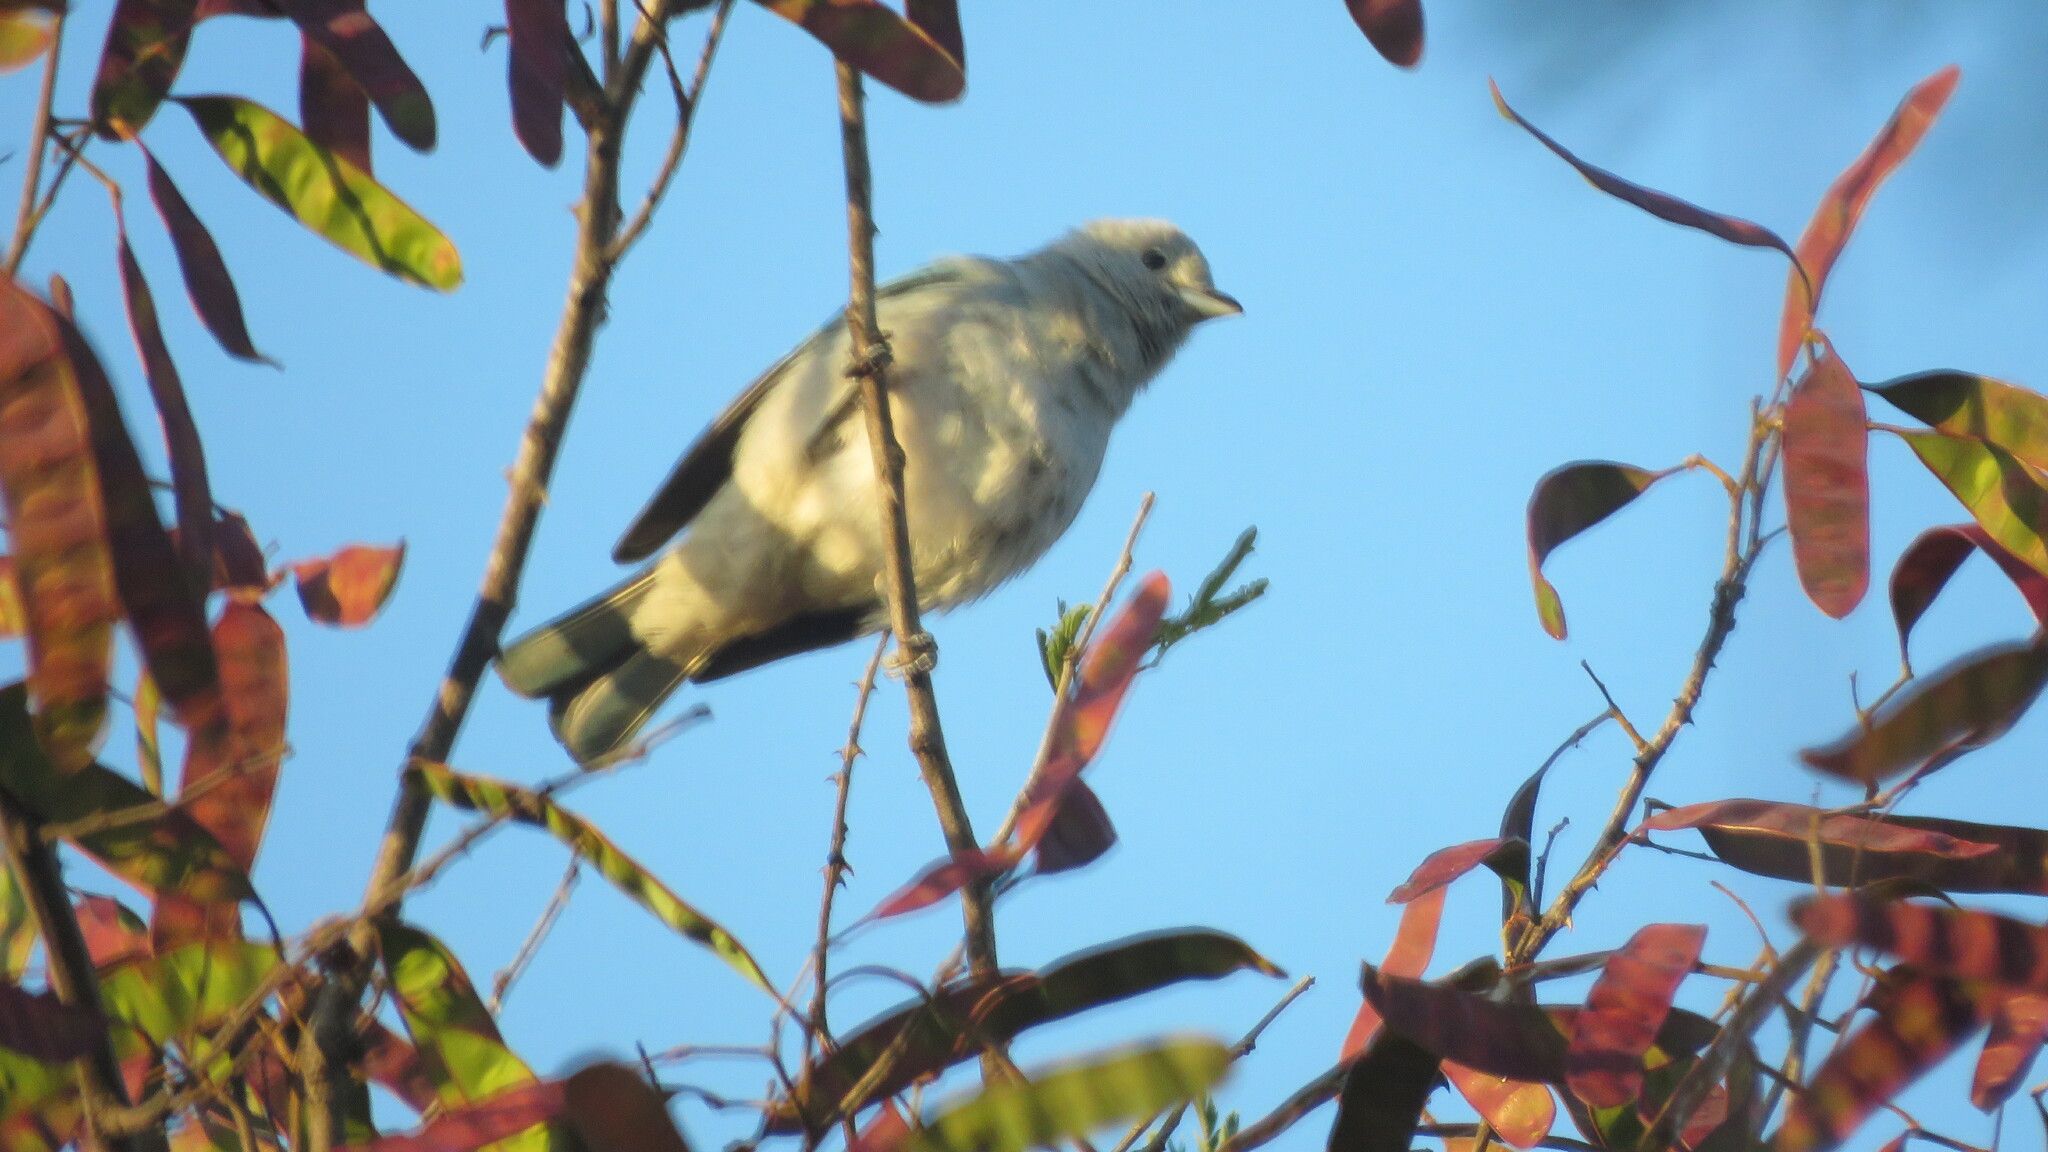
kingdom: Animalia
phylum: Chordata
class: Aves
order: Passeriformes
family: Thraupidae
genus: Thraupis
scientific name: Thraupis sayaca
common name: Sayaca tanager
